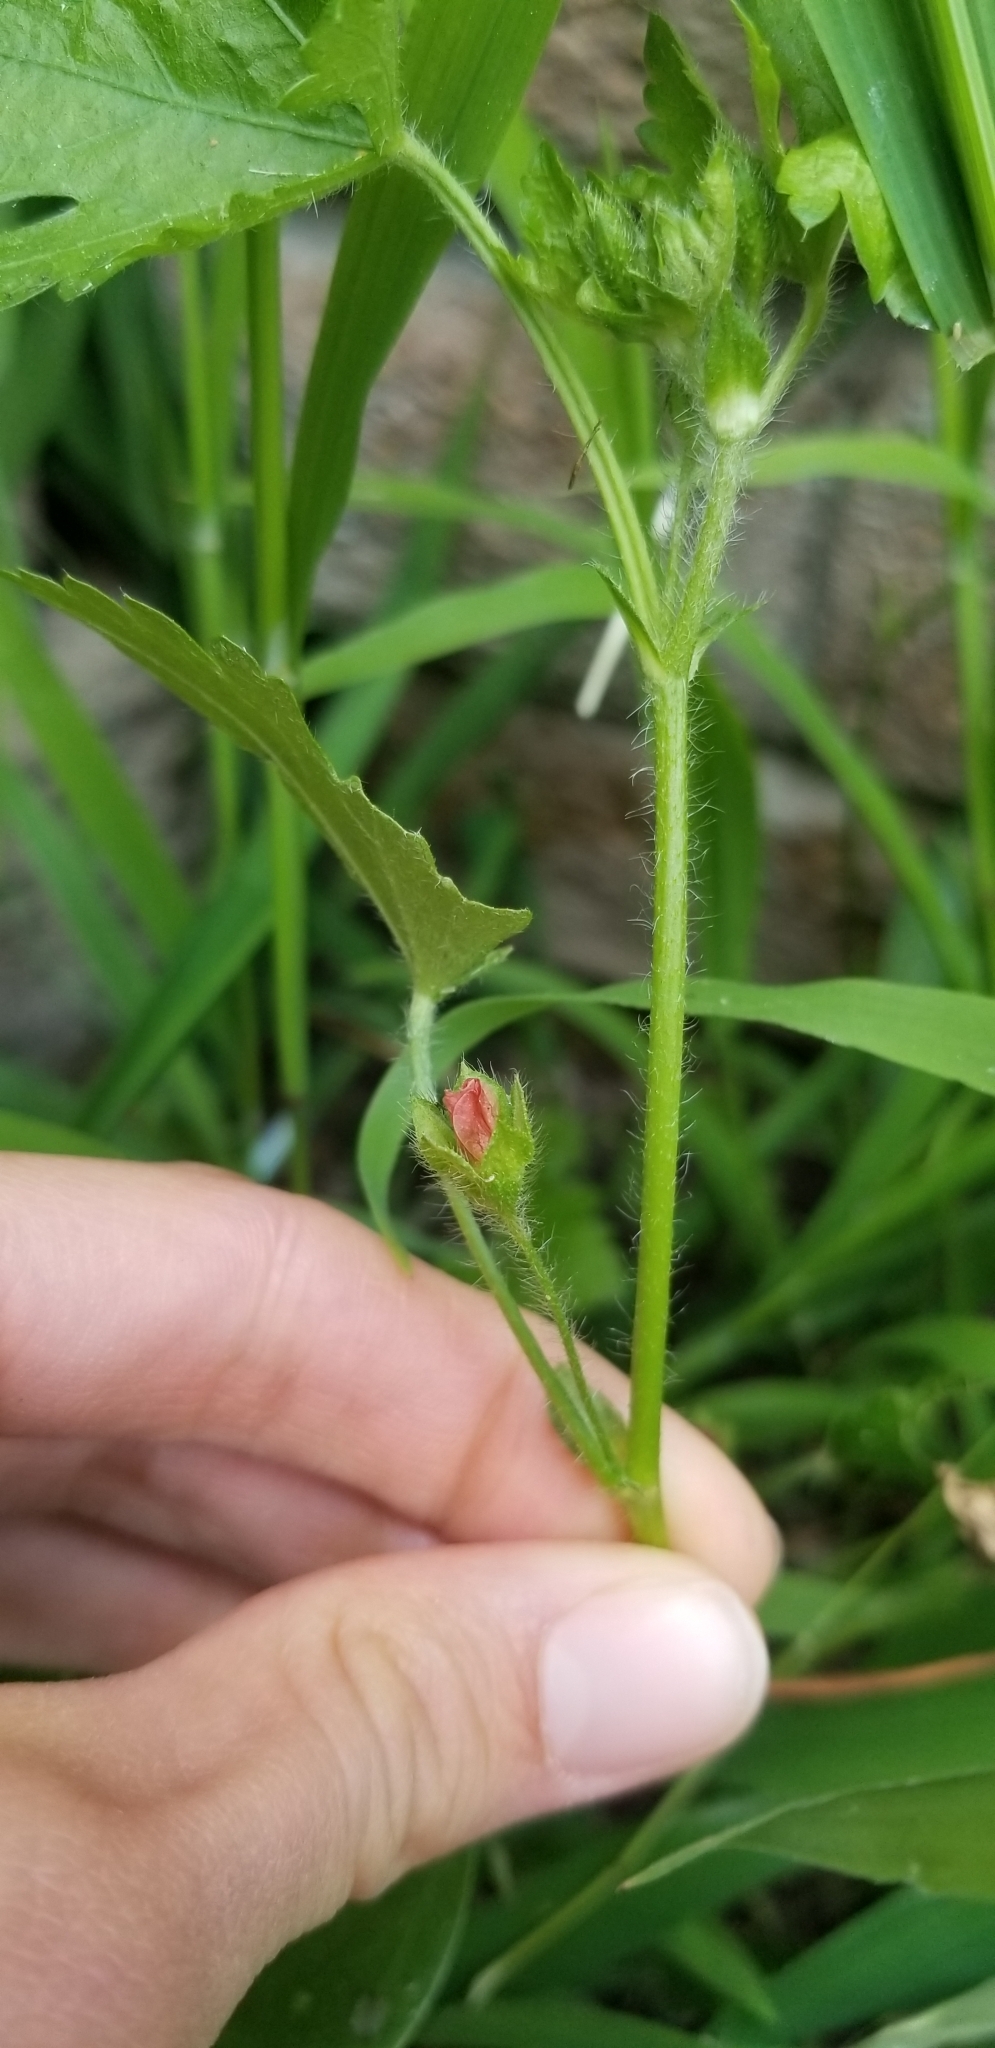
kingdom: Plantae
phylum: Tracheophyta
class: Magnoliopsida
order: Malvales
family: Malvaceae
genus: Modiola
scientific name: Modiola caroliniana
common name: Carolina bristlemallow
